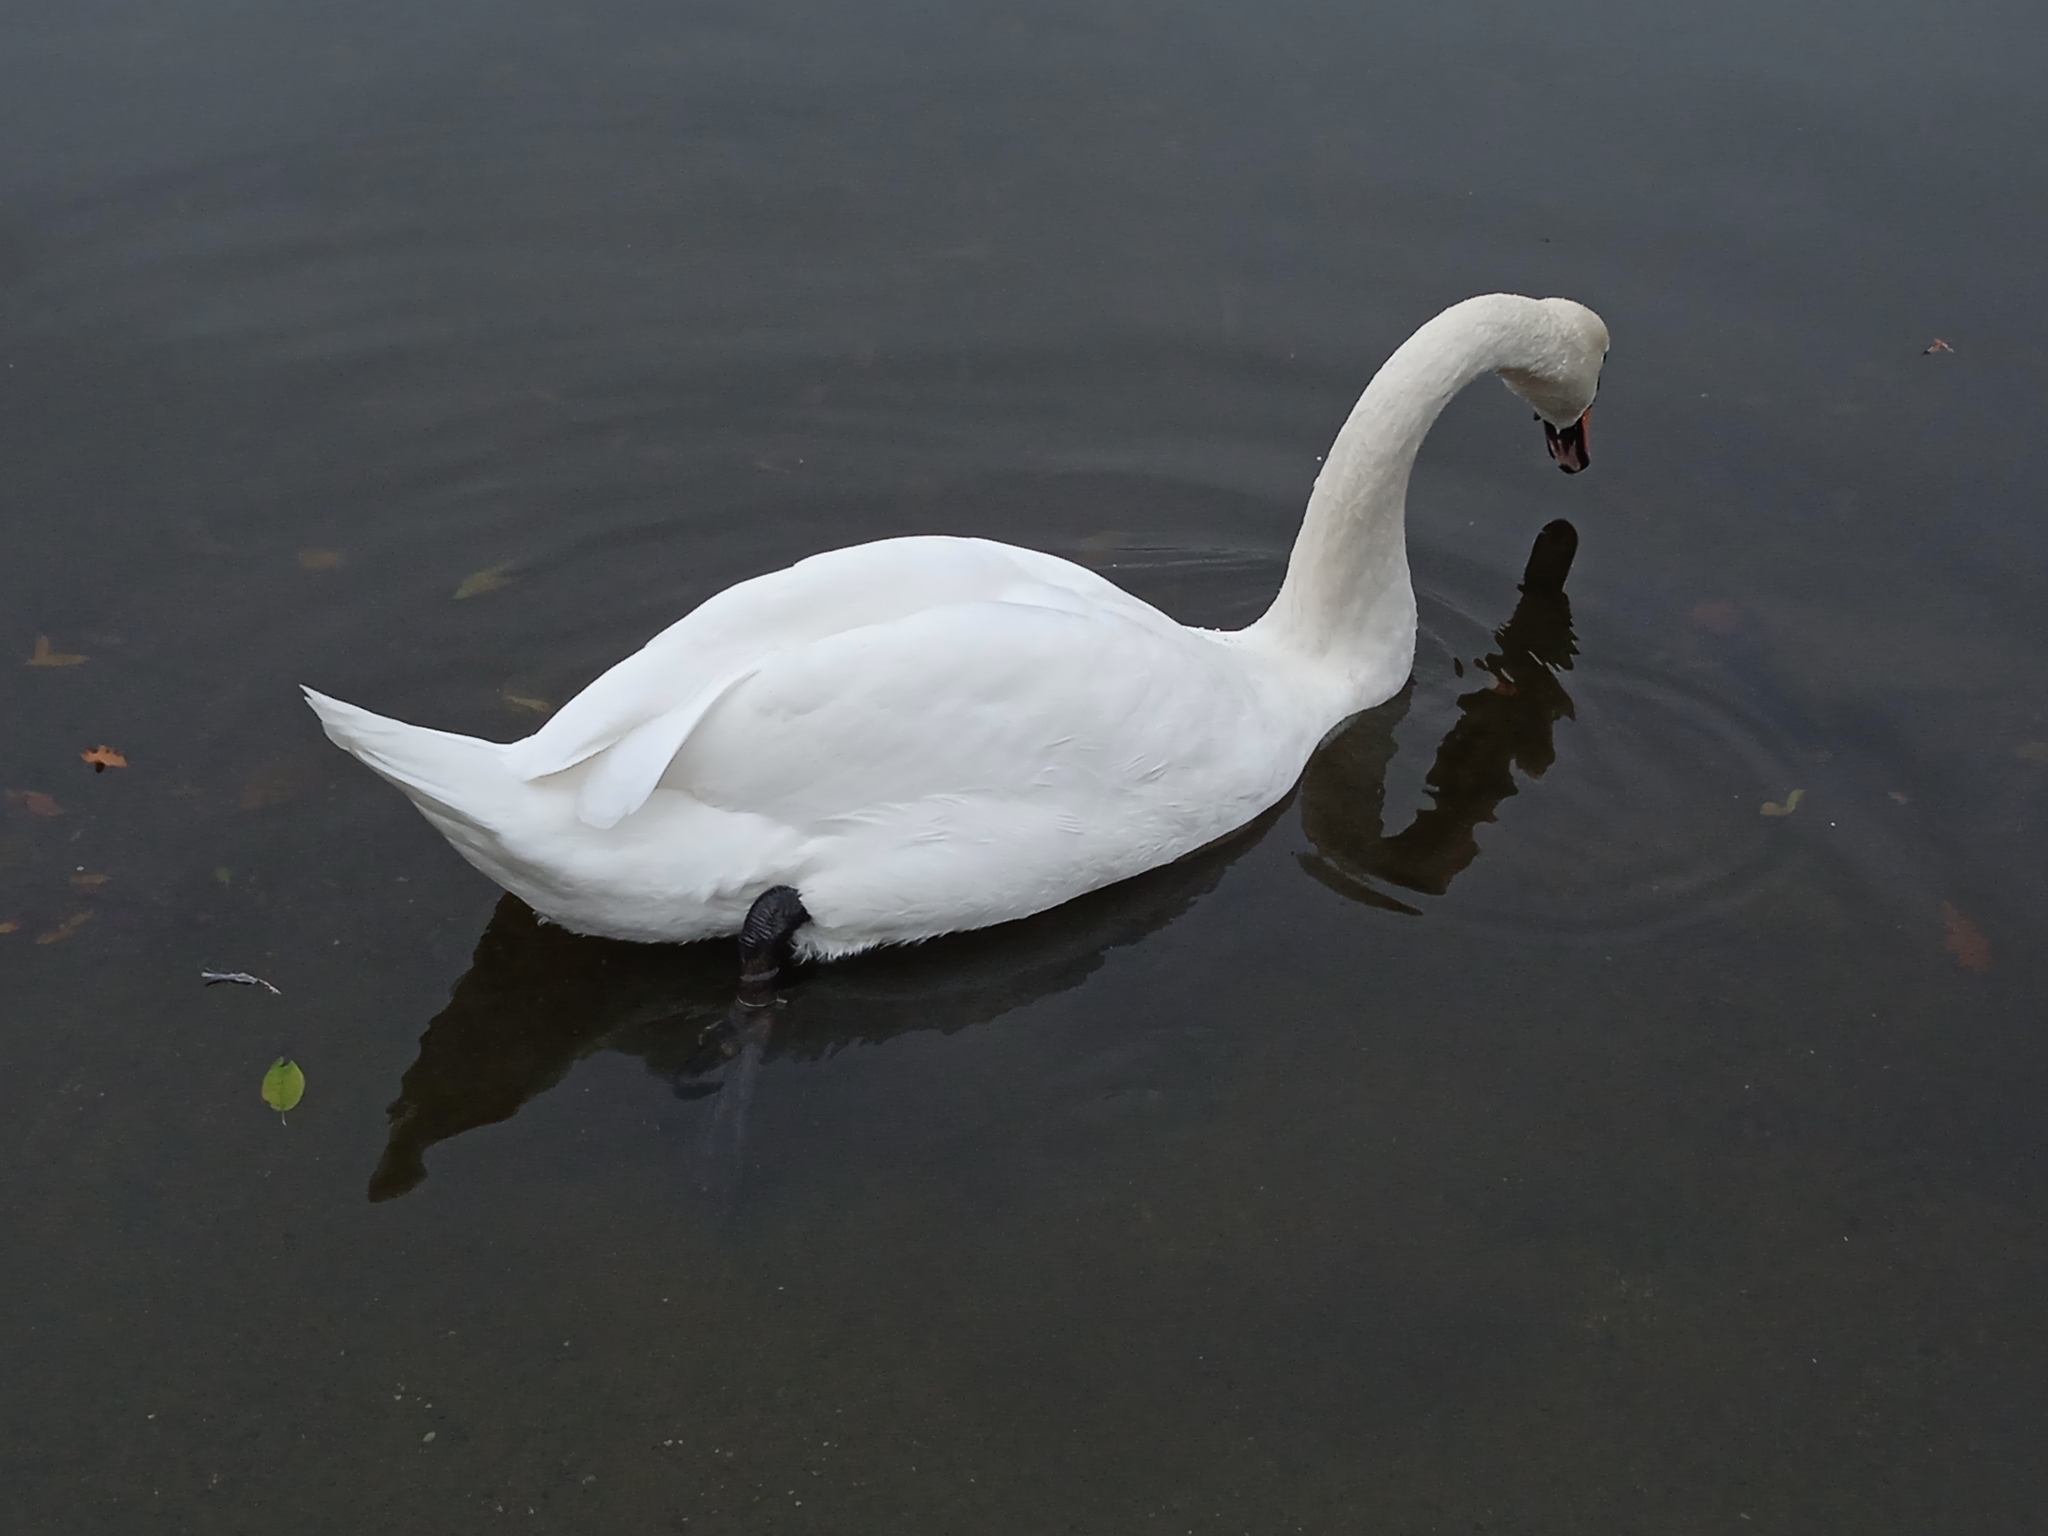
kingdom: Animalia
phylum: Chordata
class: Aves
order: Anseriformes
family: Anatidae
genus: Cygnus
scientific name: Cygnus olor
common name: Mute swan
